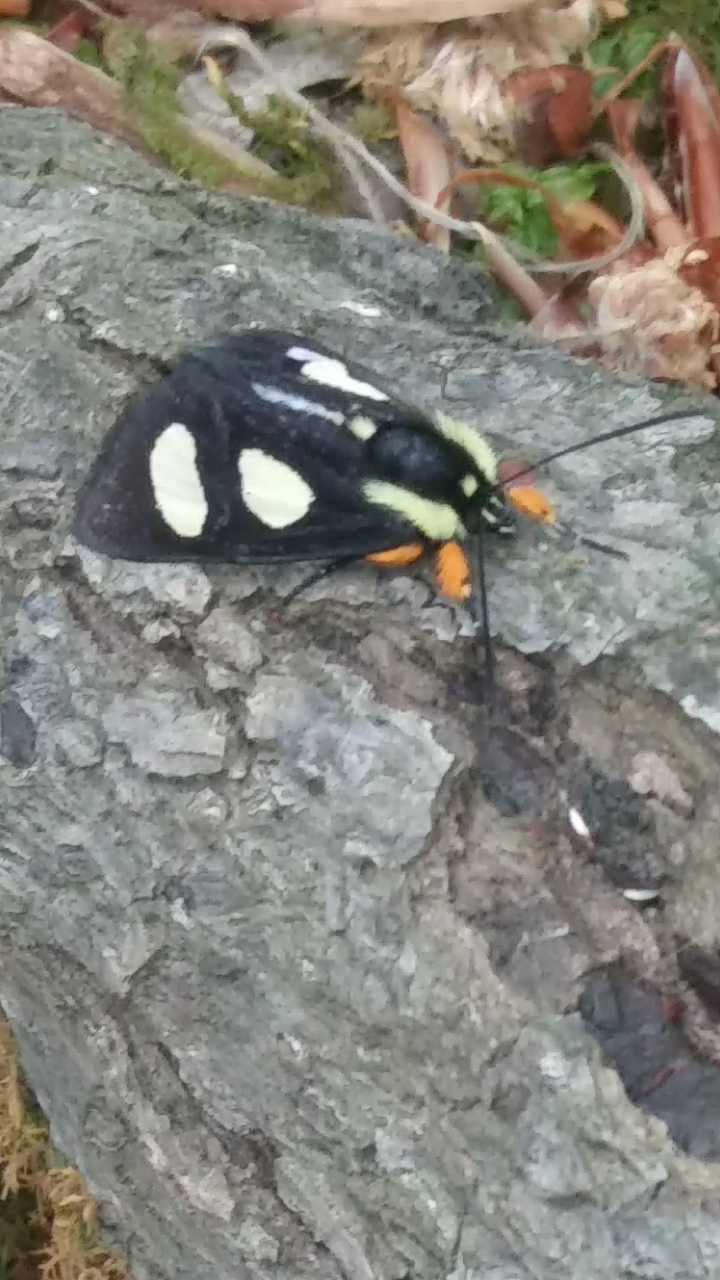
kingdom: Animalia
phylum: Arthropoda
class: Insecta
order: Lepidoptera
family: Noctuidae
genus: Alypia
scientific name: Alypia octomaculata
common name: Eight-spotted forester
